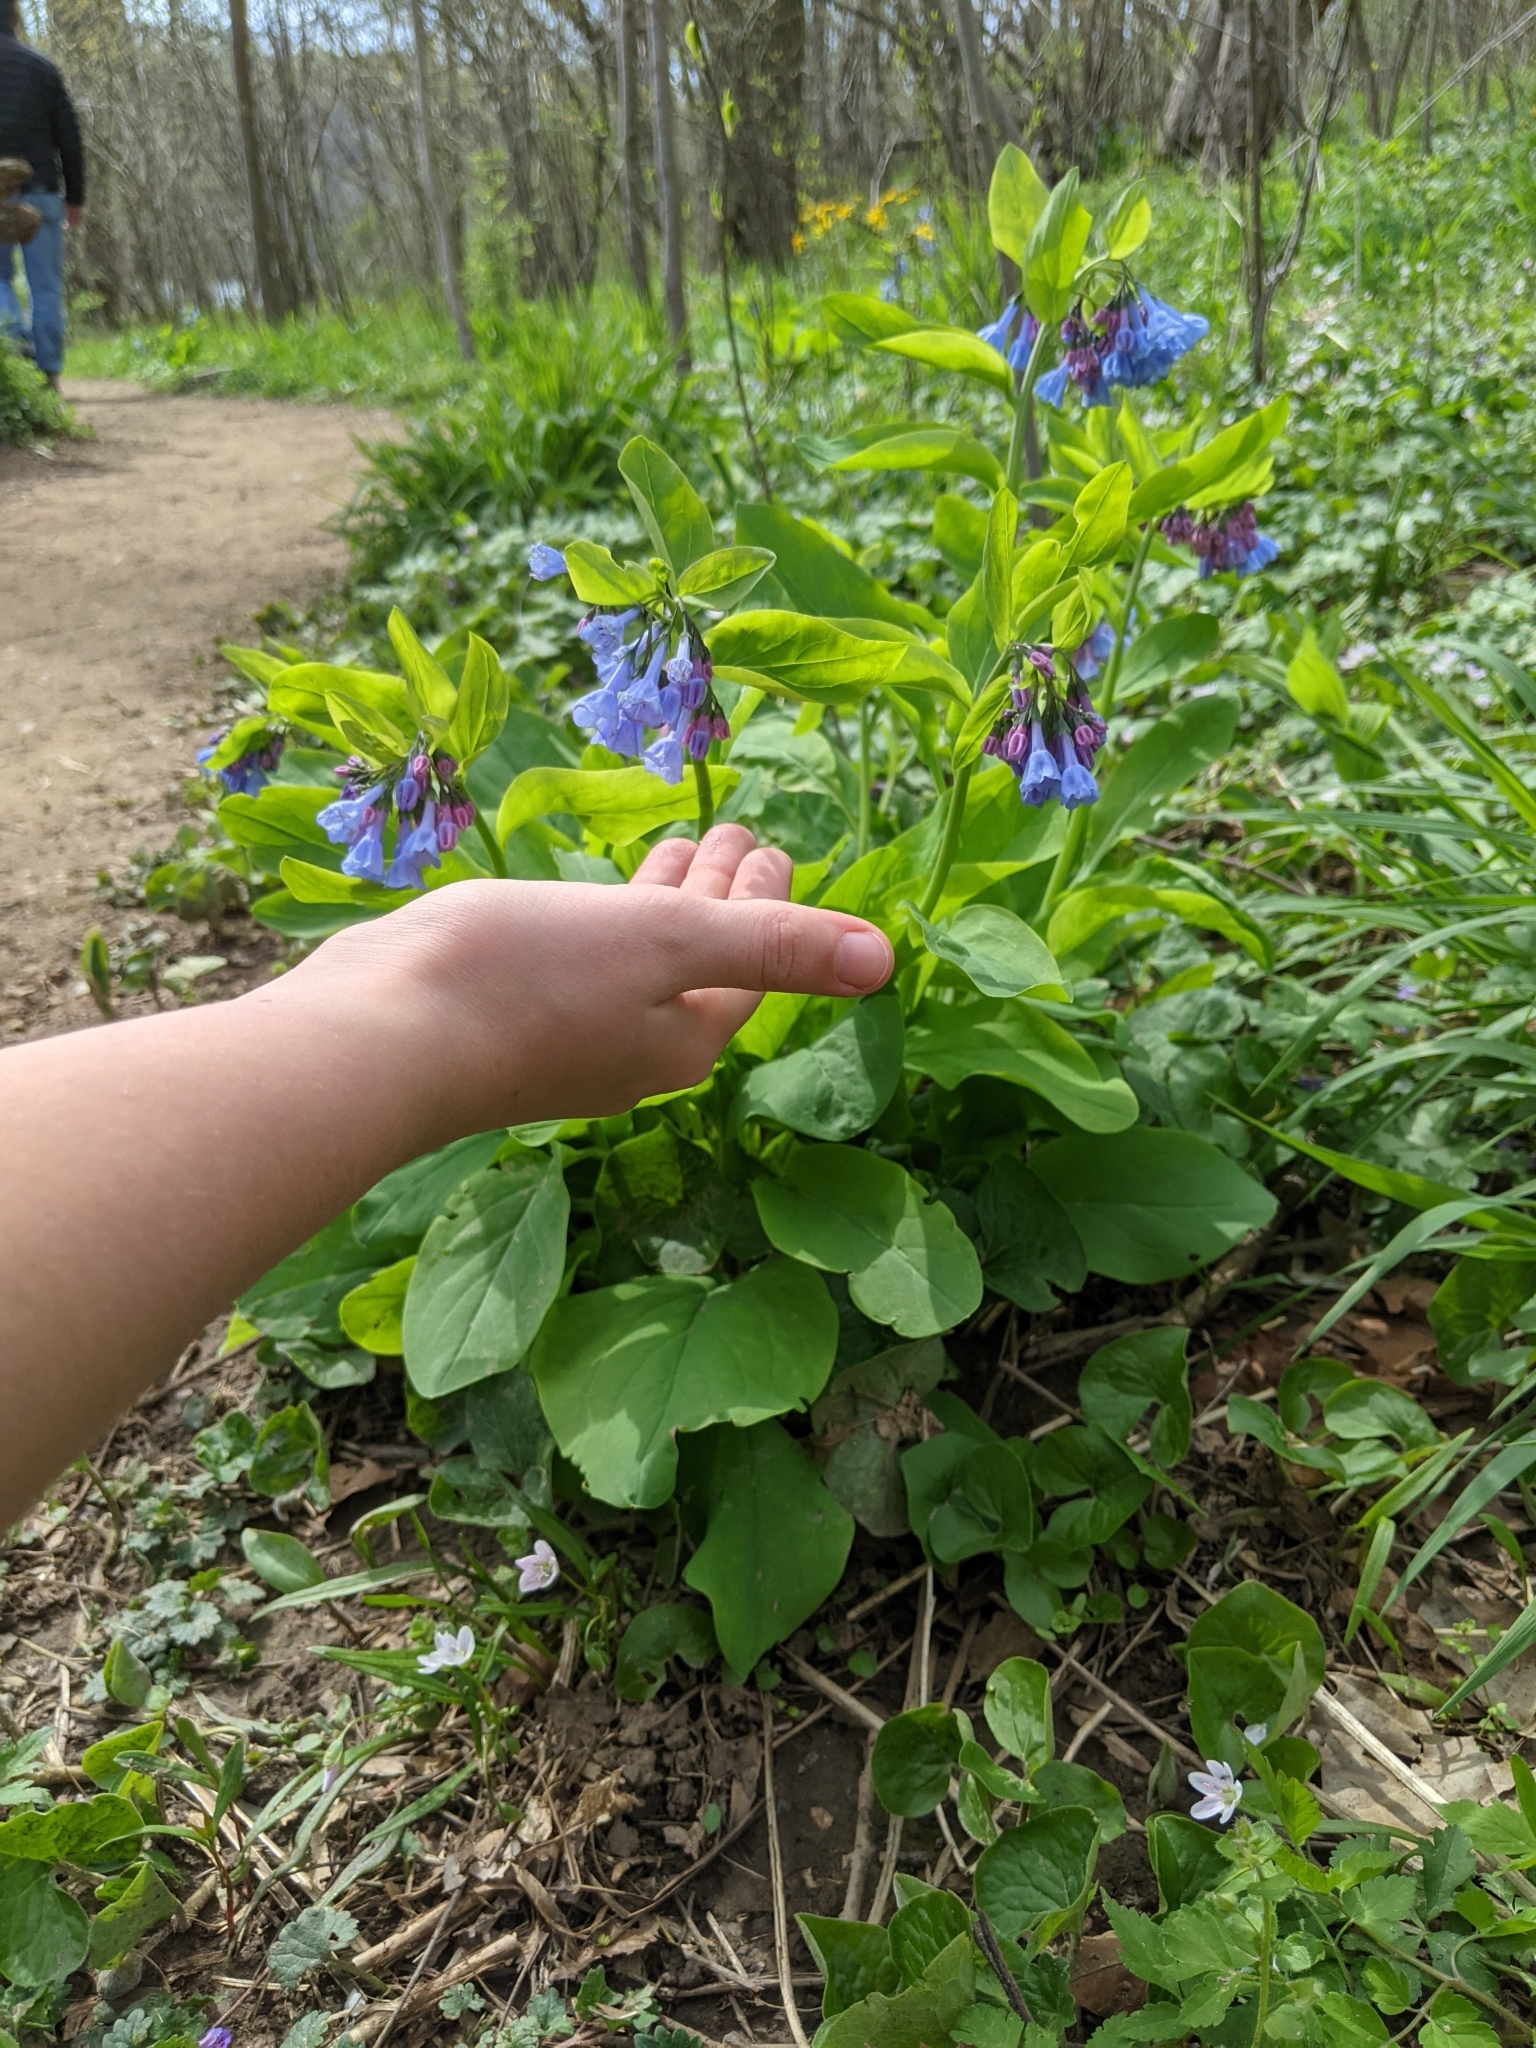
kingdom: Plantae
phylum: Tracheophyta
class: Magnoliopsida
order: Boraginales
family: Boraginaceae
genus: Mertensia
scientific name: Mertensia virginica
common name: Virginia bluebells
